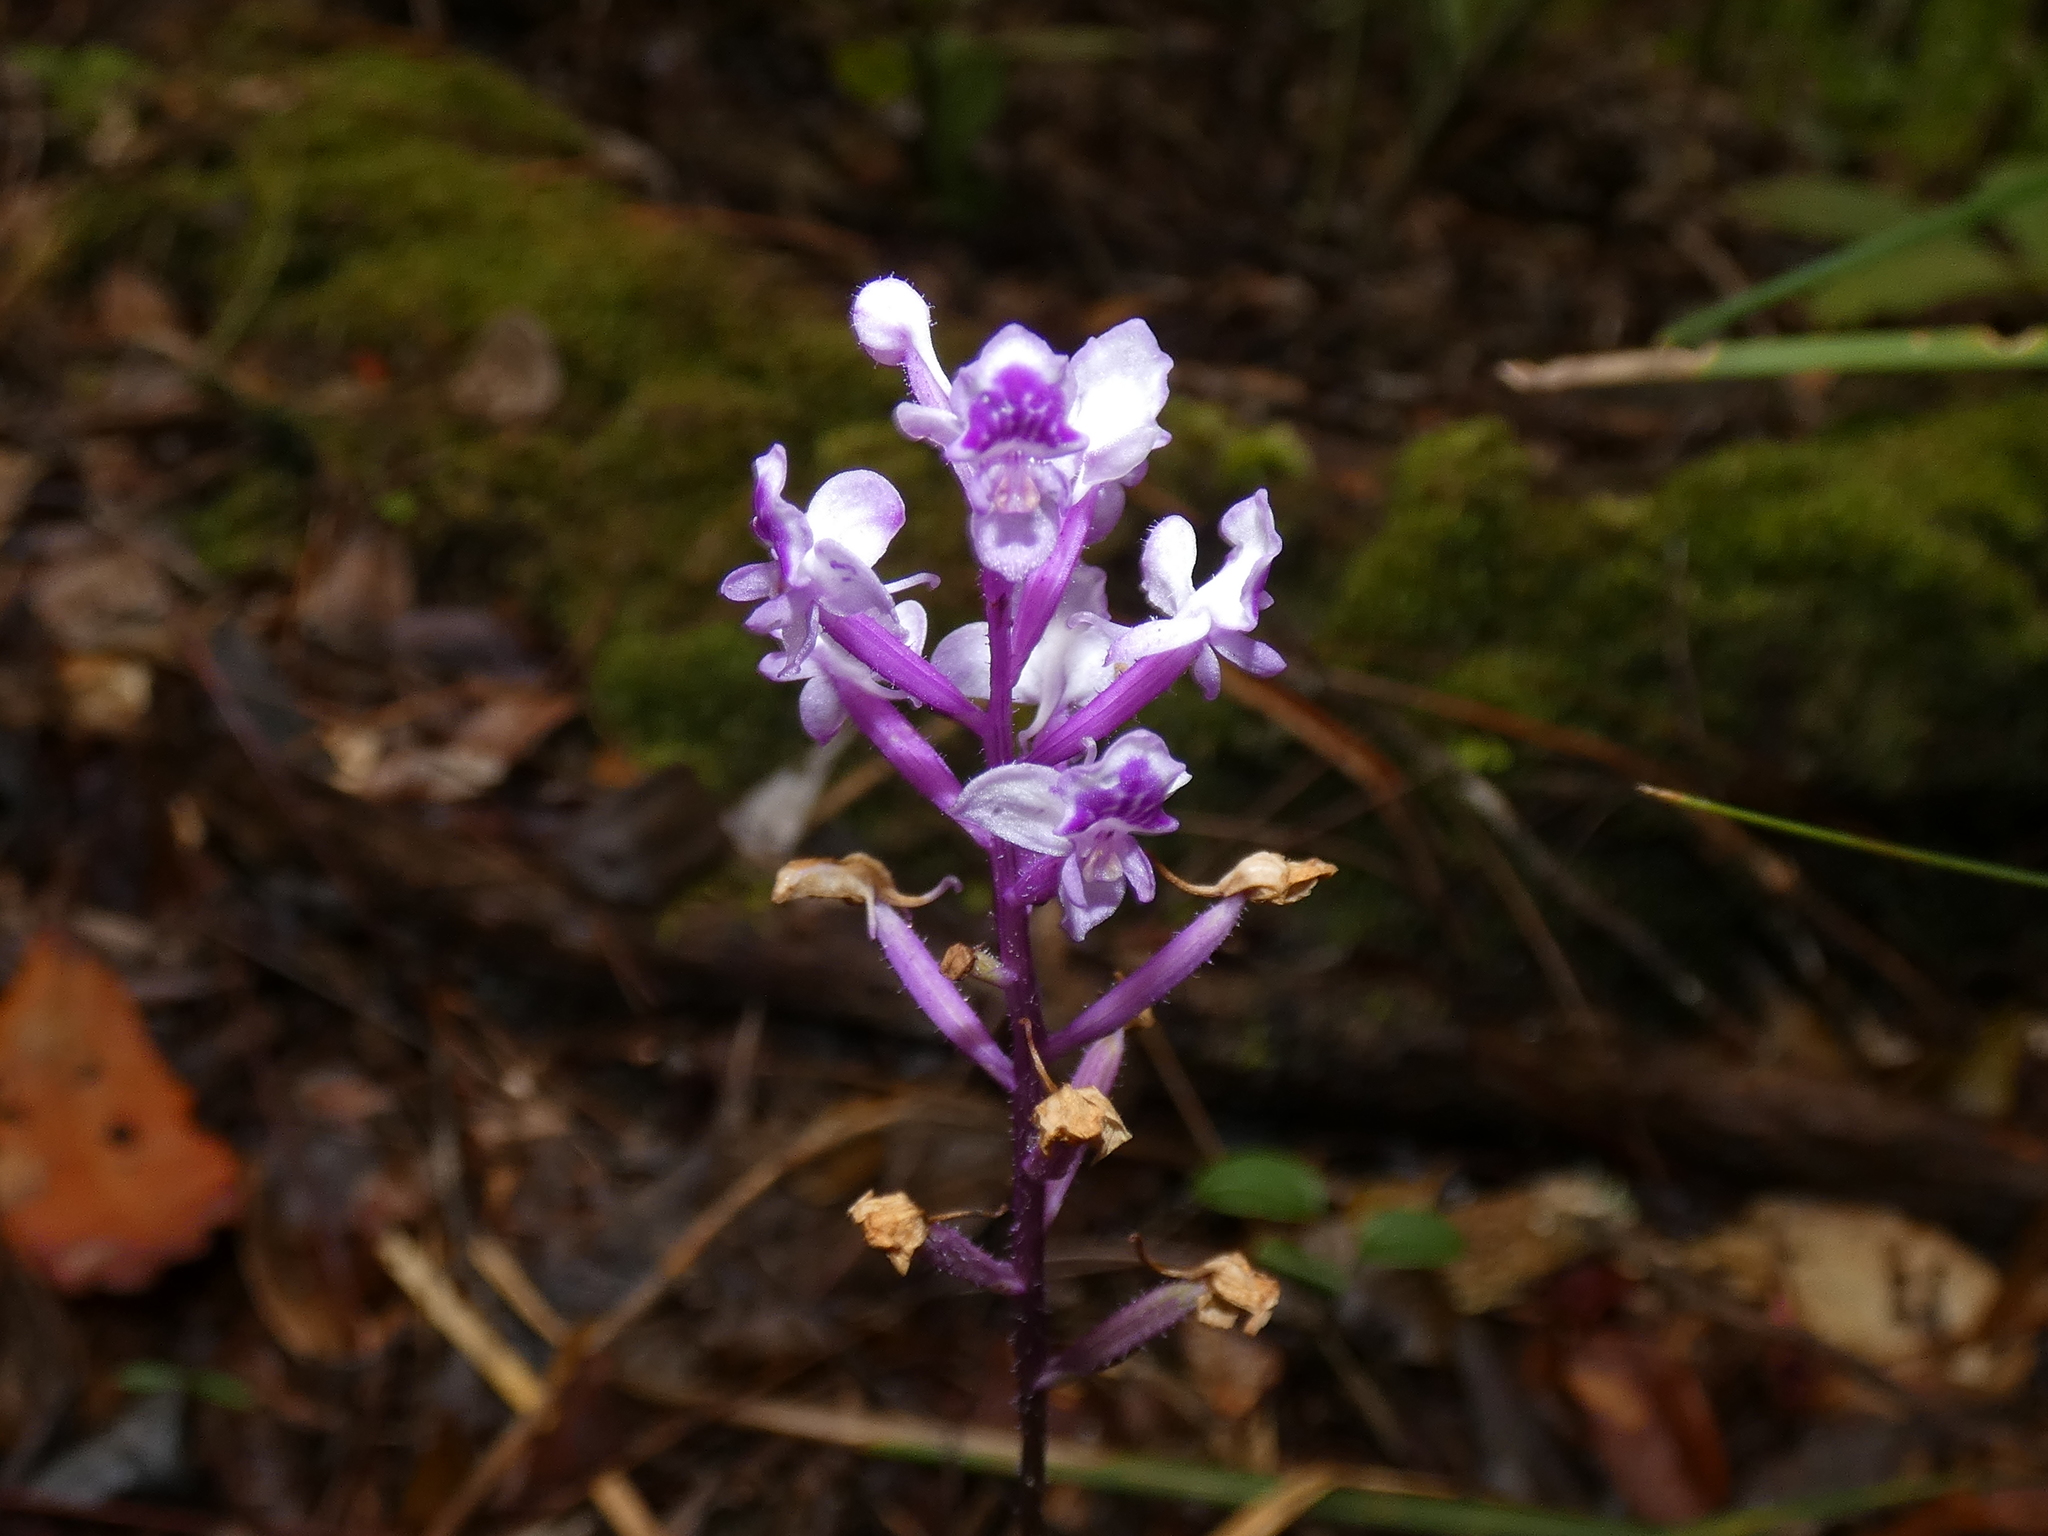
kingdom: Plantae
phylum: Tracheophyta
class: Liliopsida
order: Asparagales
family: Orchidaceae
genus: Cynorkis
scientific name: Cynorkis ridleyi
